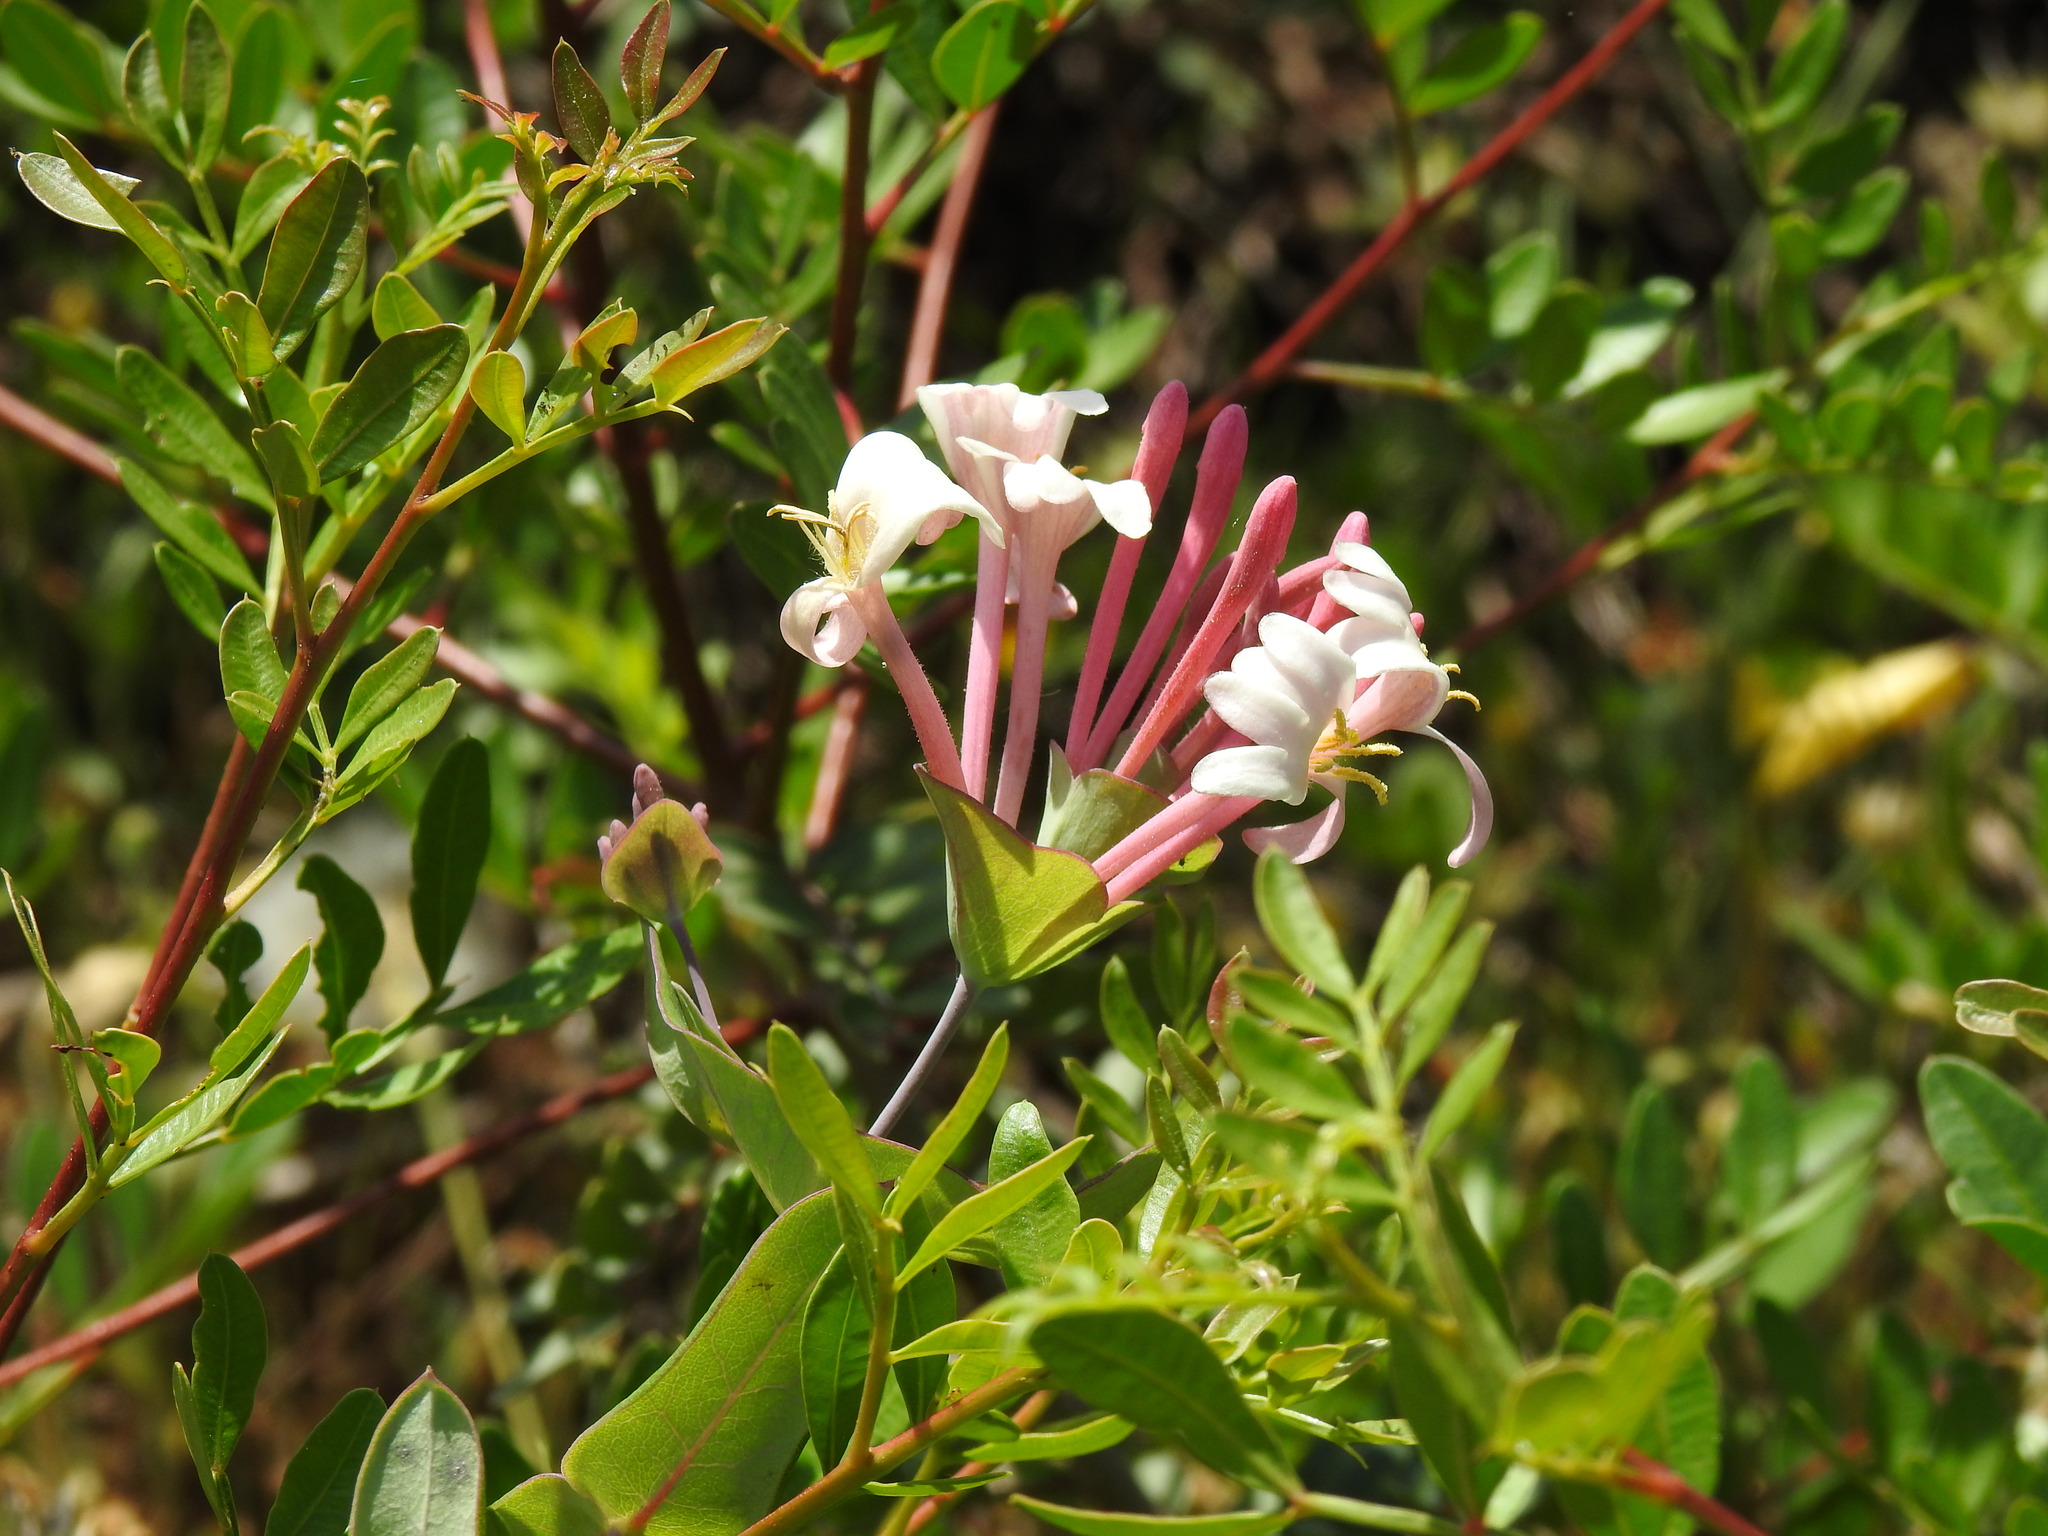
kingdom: Plantae
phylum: Tracheophyta
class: Magnoliopsida
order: Dipsacales
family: Caprifoliaceae
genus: Lonicera
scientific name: Lonicera implexa
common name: Minorca honeysuckle
